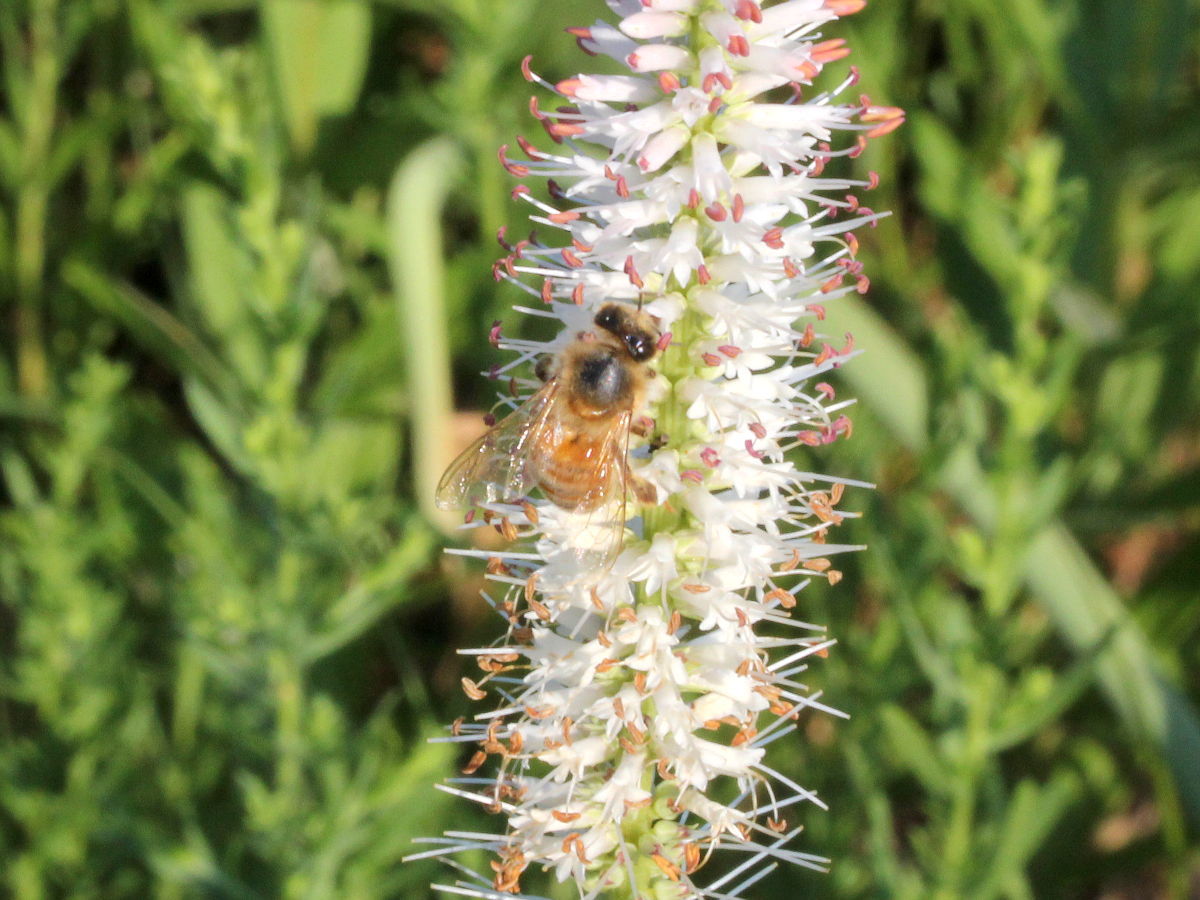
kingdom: Plantae
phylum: Tracheophyta
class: Magnoliopsida
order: Lamiales
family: Plantaginaceae
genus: Veronicastrum
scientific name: Veronicastrum virginicum
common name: Blackroot
